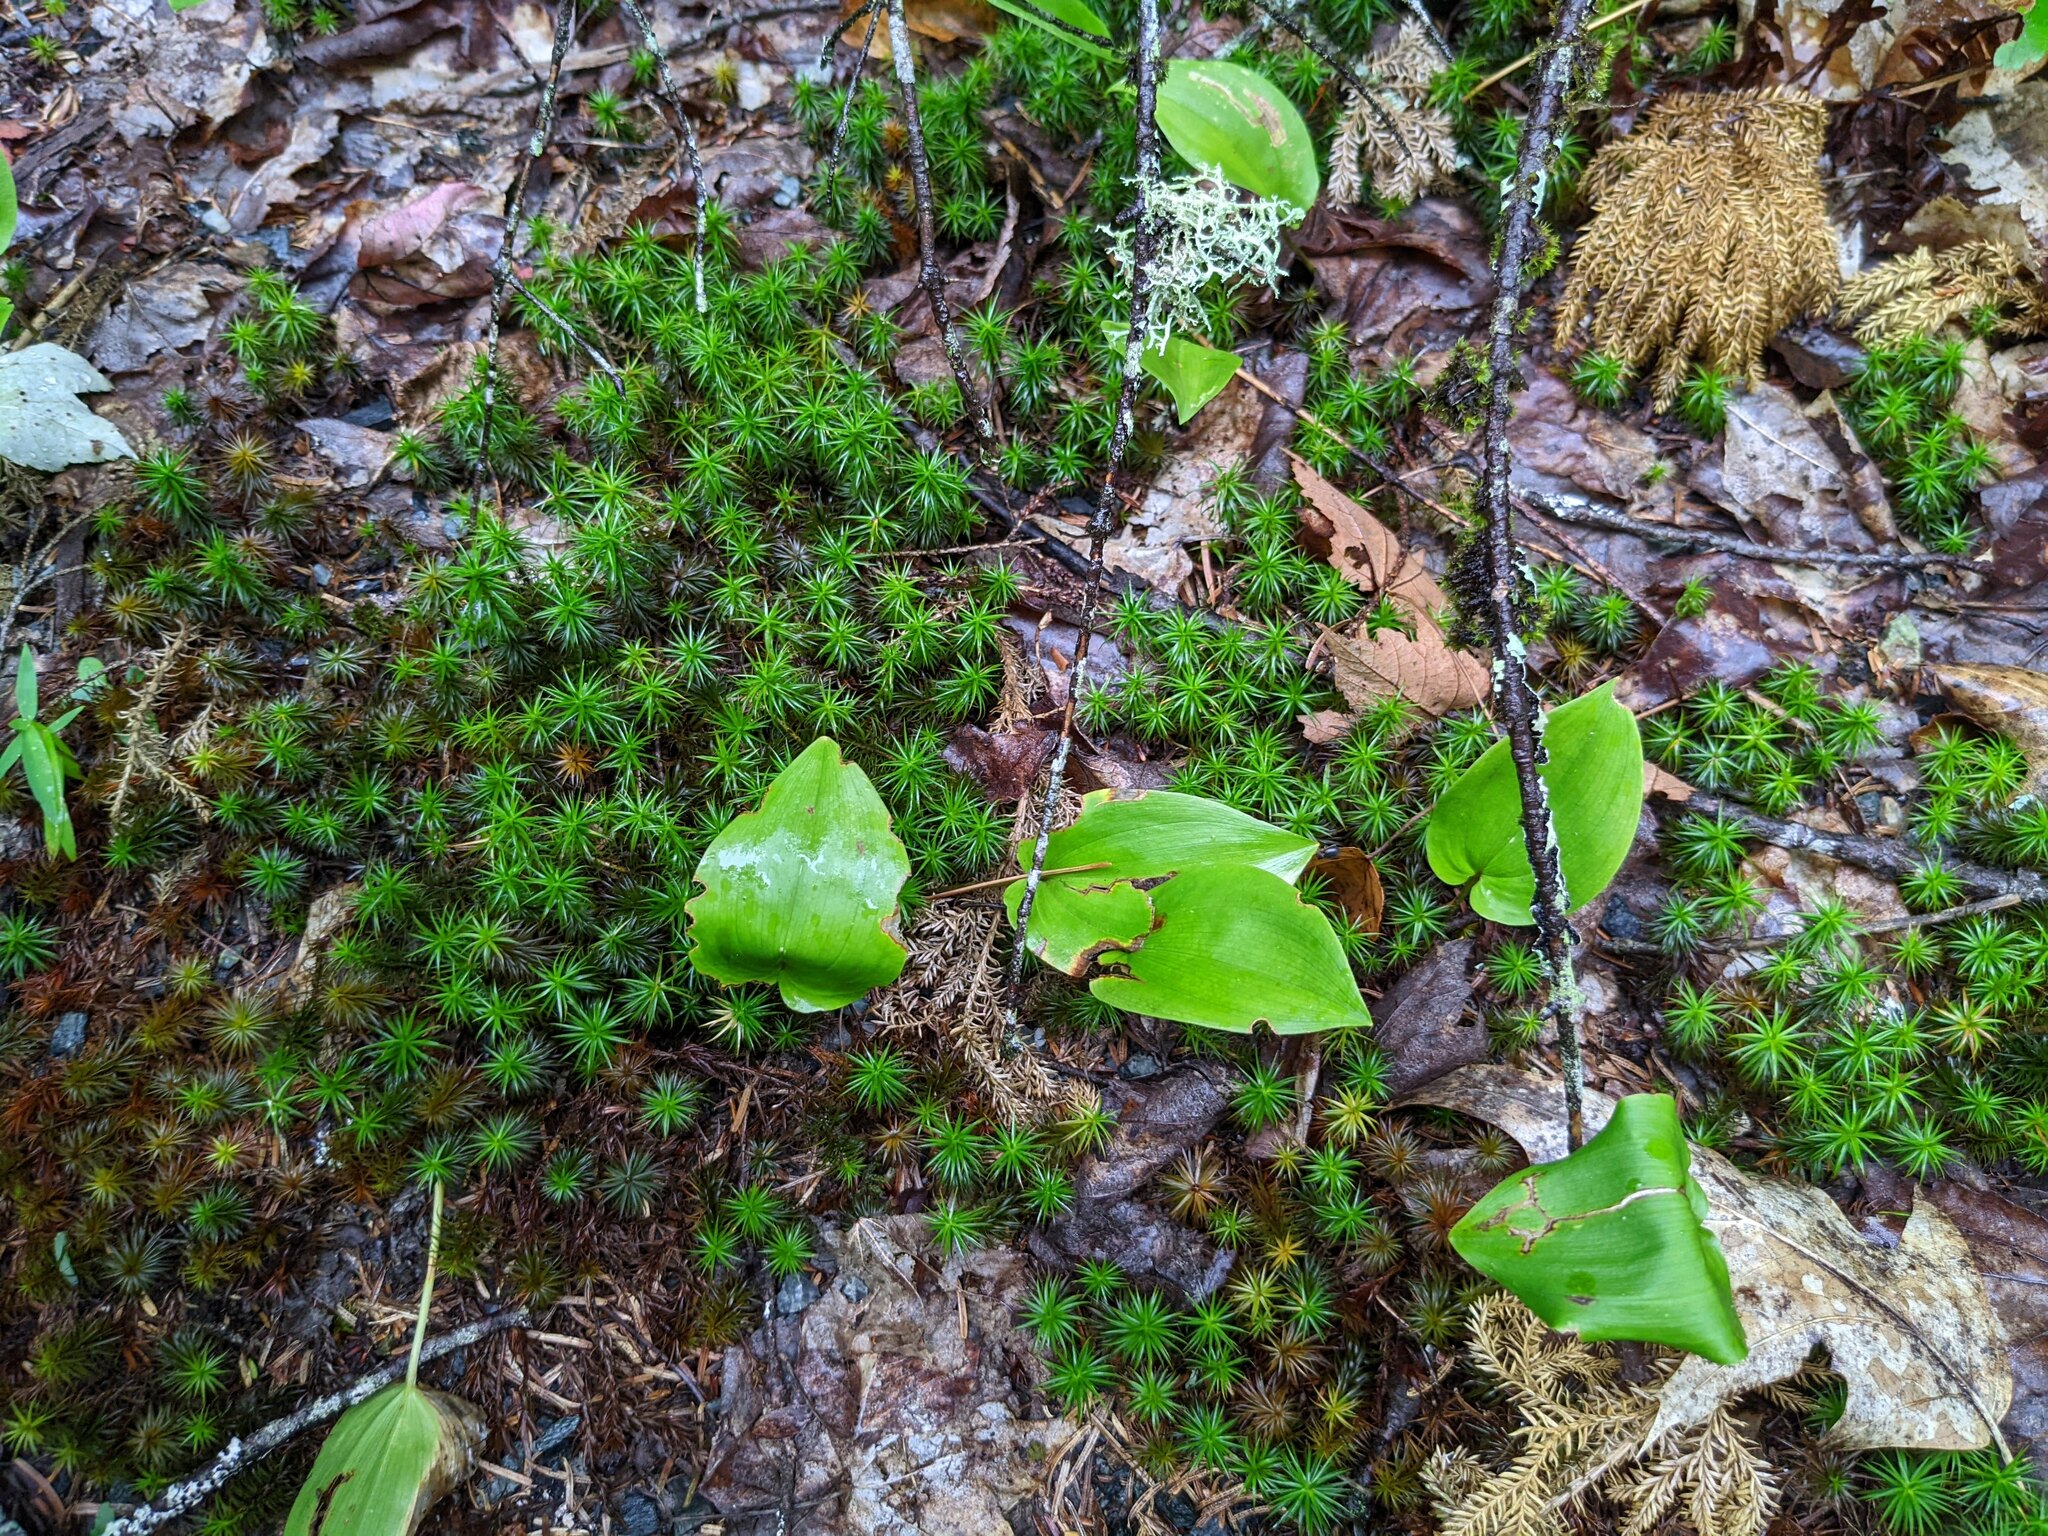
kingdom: Plantae
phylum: Tracheophyta
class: Liliopsida
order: Asparagales
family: Asparagaceae
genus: Maianthemum
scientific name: Maianthemum canadense
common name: False lily-of-the-valley
